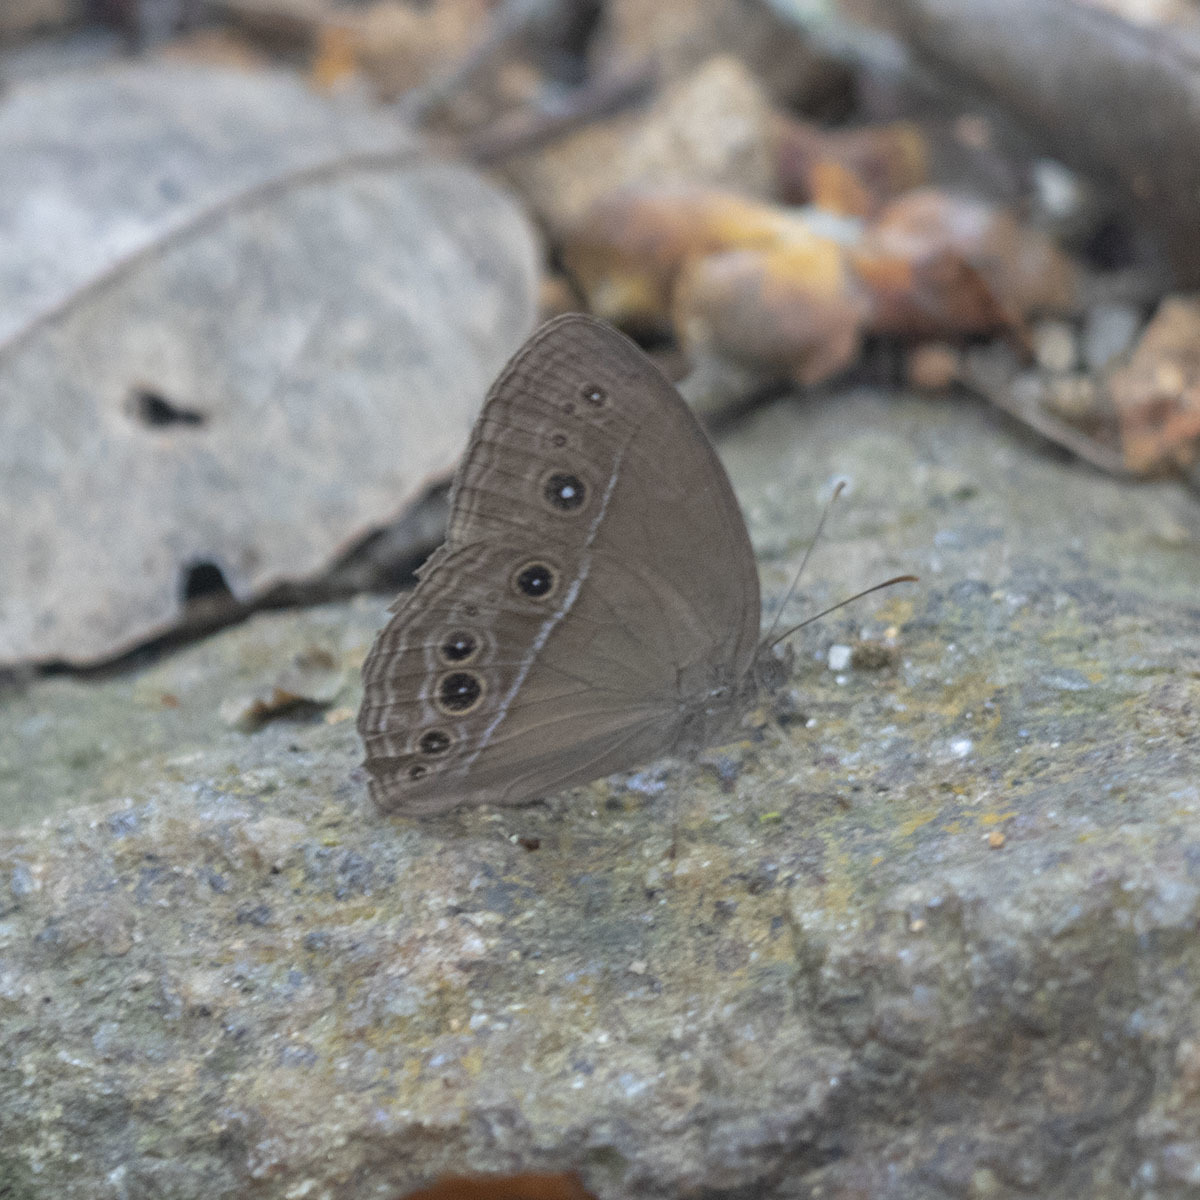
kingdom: Animalia
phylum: Arthropoda
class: Insecta
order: Lepidoptera
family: Nymphalidae
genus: Mycalesis
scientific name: Mycalesis perseus
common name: Dingy bushbrown
